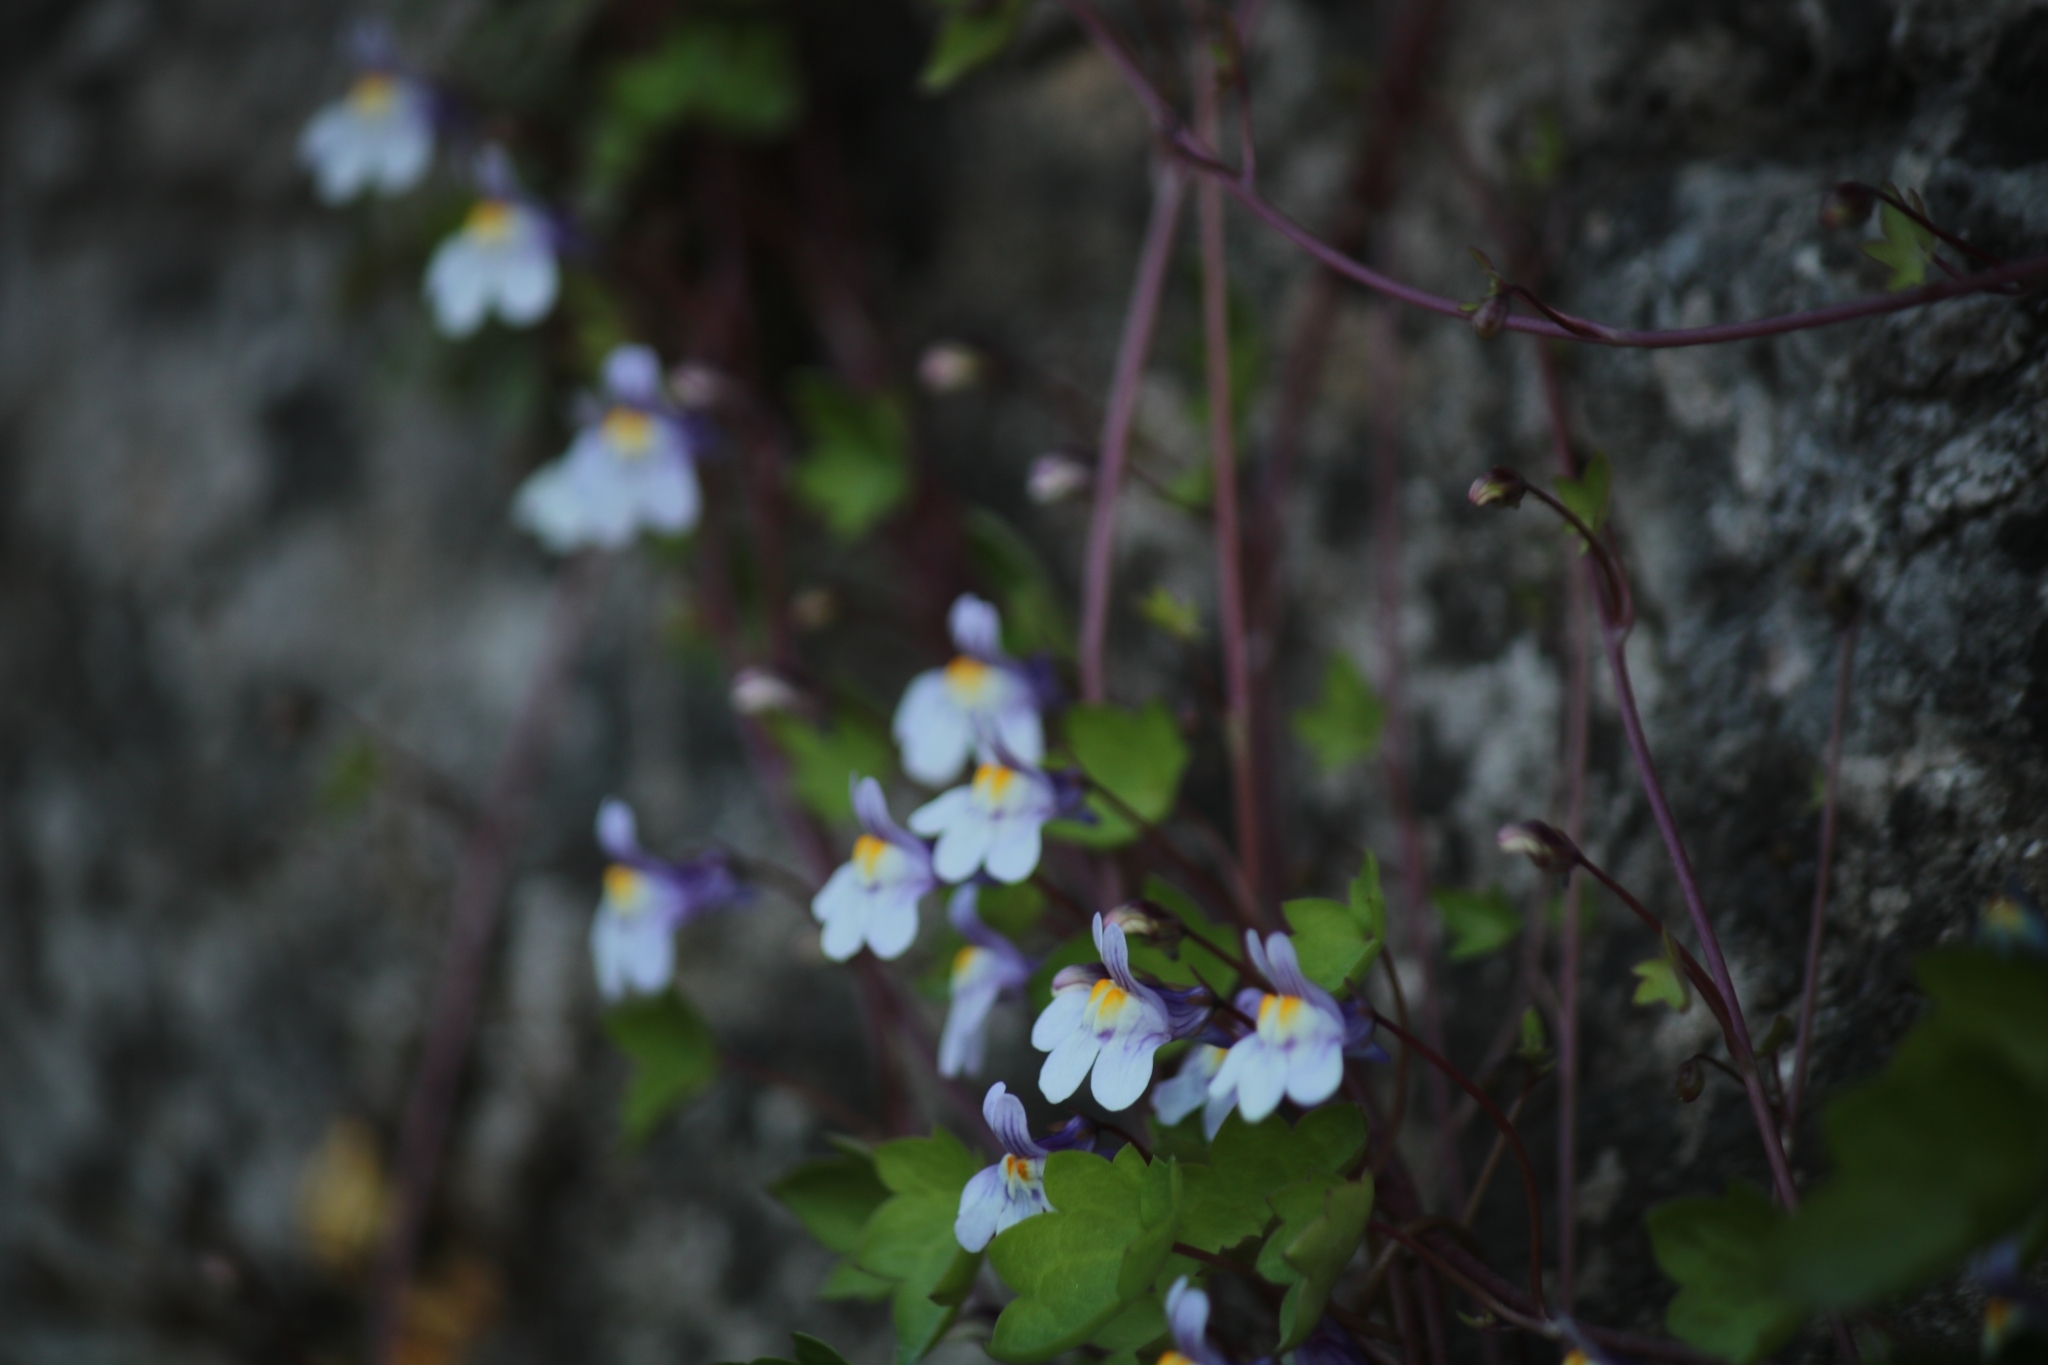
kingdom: Plantae
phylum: Tracheophyta
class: Magnoliopsida
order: Lamiales
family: Plantaginaceae
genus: Cymbalaria
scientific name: Cymbalaria muralis
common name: Ivy-leaved toadflax
